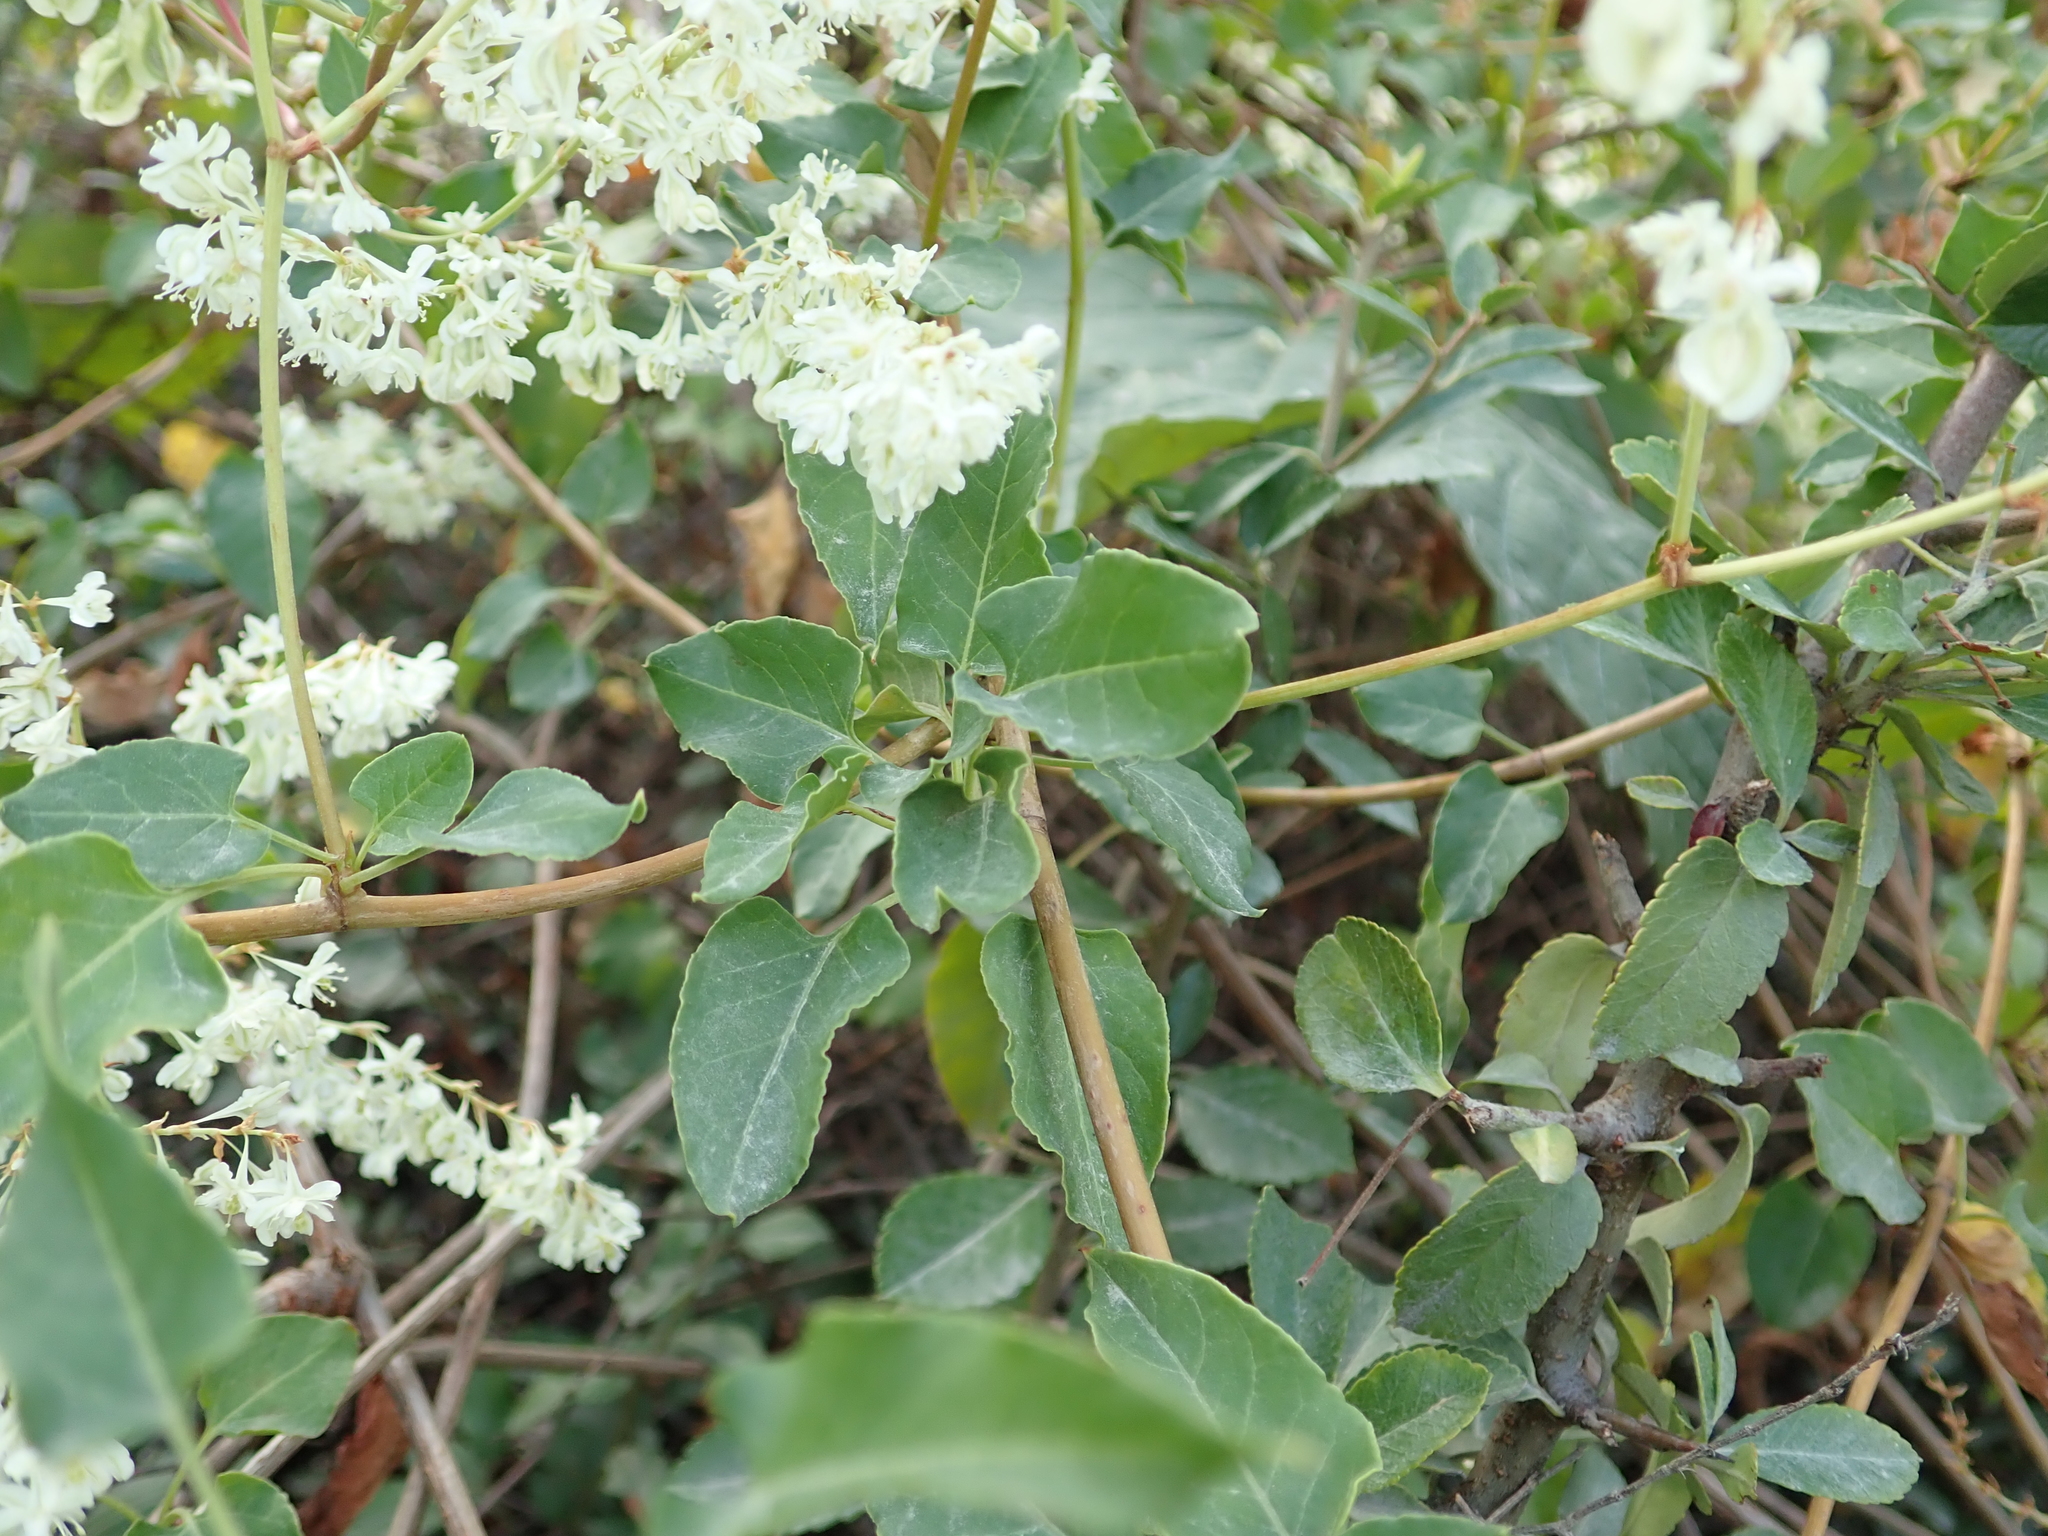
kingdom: Plantae
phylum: Tracheophyta
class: Magnoliopsida
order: Caryophyllales
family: Polygonaceae
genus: Fallopia
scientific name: Fallopia baldschuanica
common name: Russian-vine
